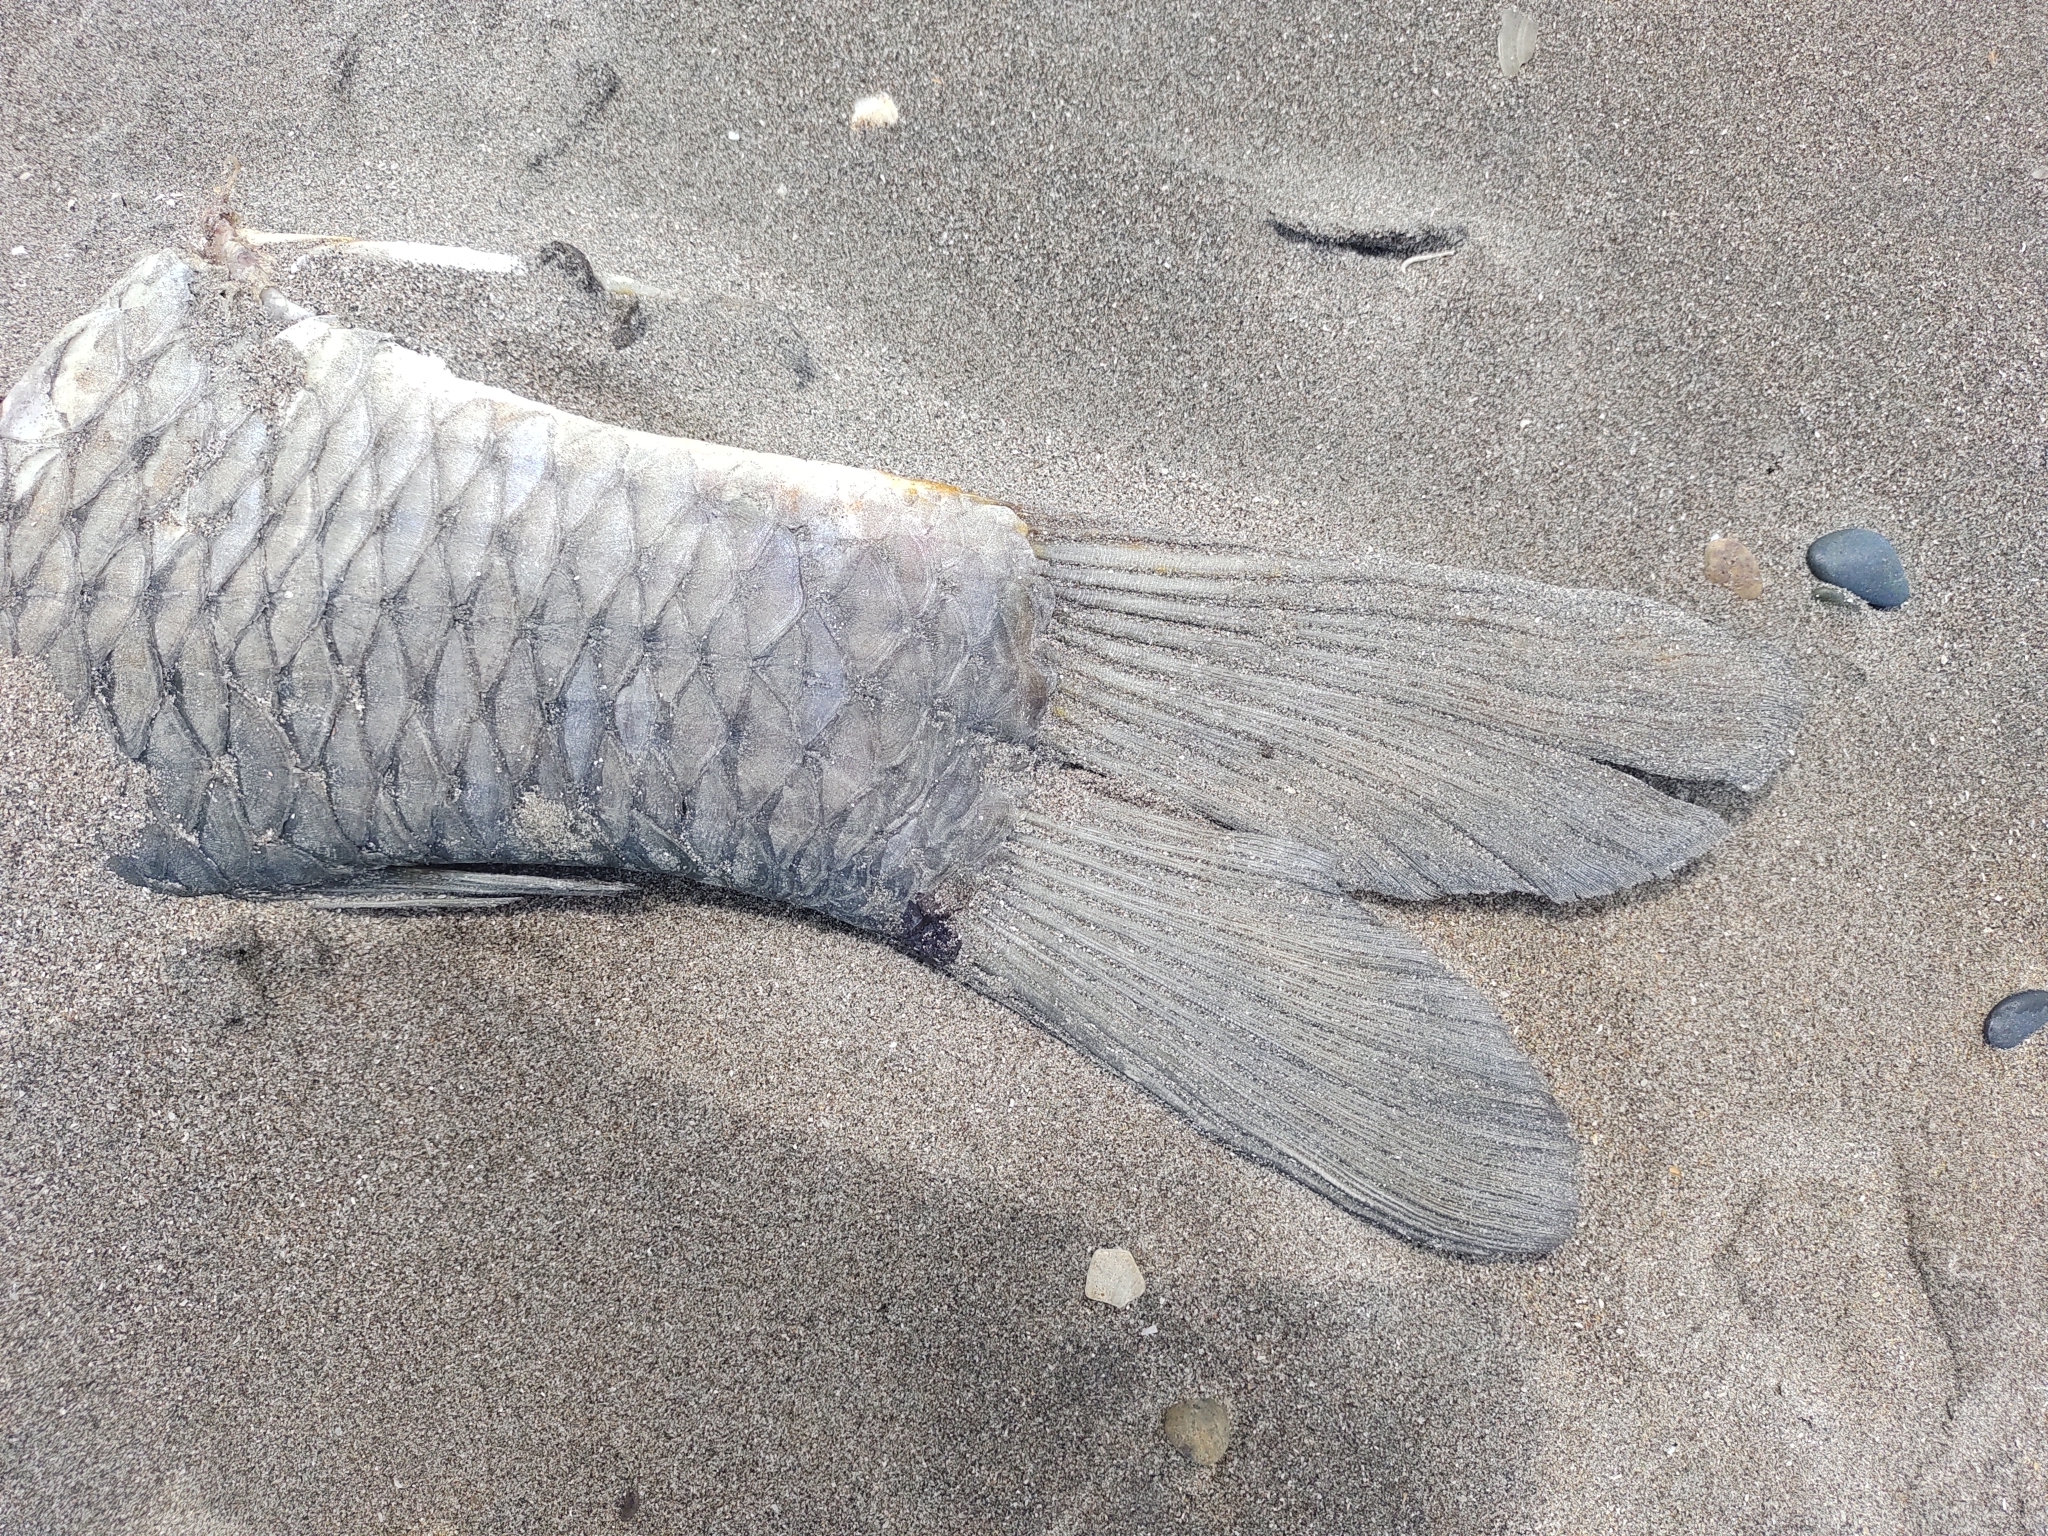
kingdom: Animalia
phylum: Chordata
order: Cypriniformes
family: Cyprinidae
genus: Cyprinus
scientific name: Cyprinus carpio
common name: Common carp
